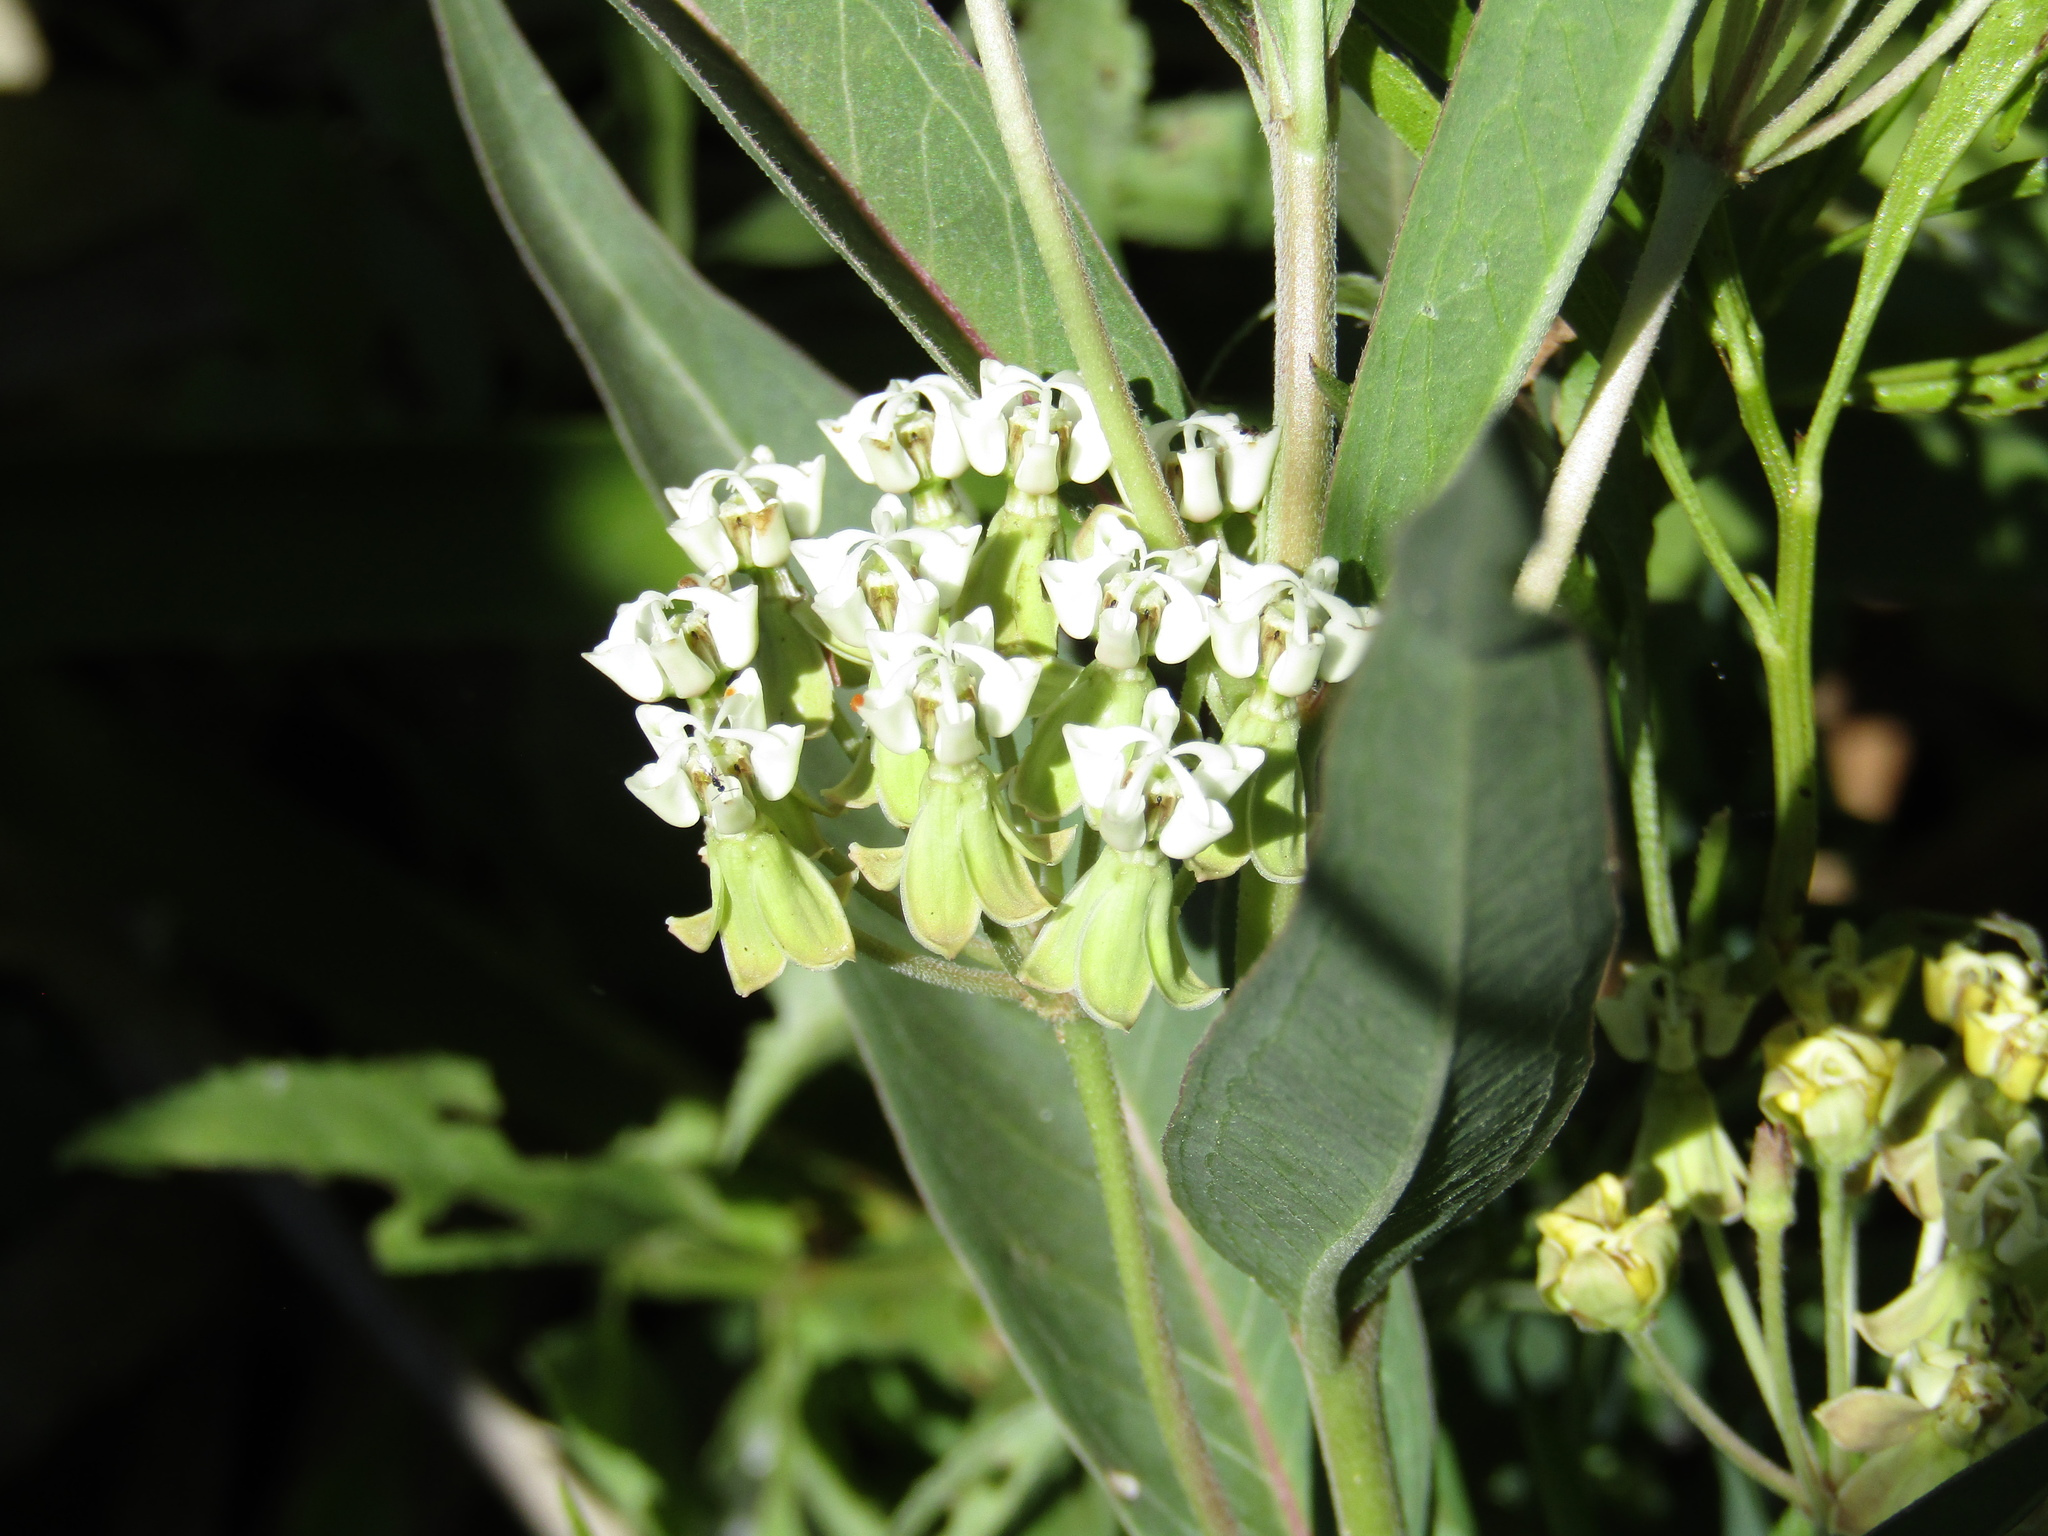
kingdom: Plantae
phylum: Tracheophyta
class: Magnoliopsida
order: Gentianales
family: Apocynaceae
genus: Asclepias
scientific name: Asclepias mellodora
